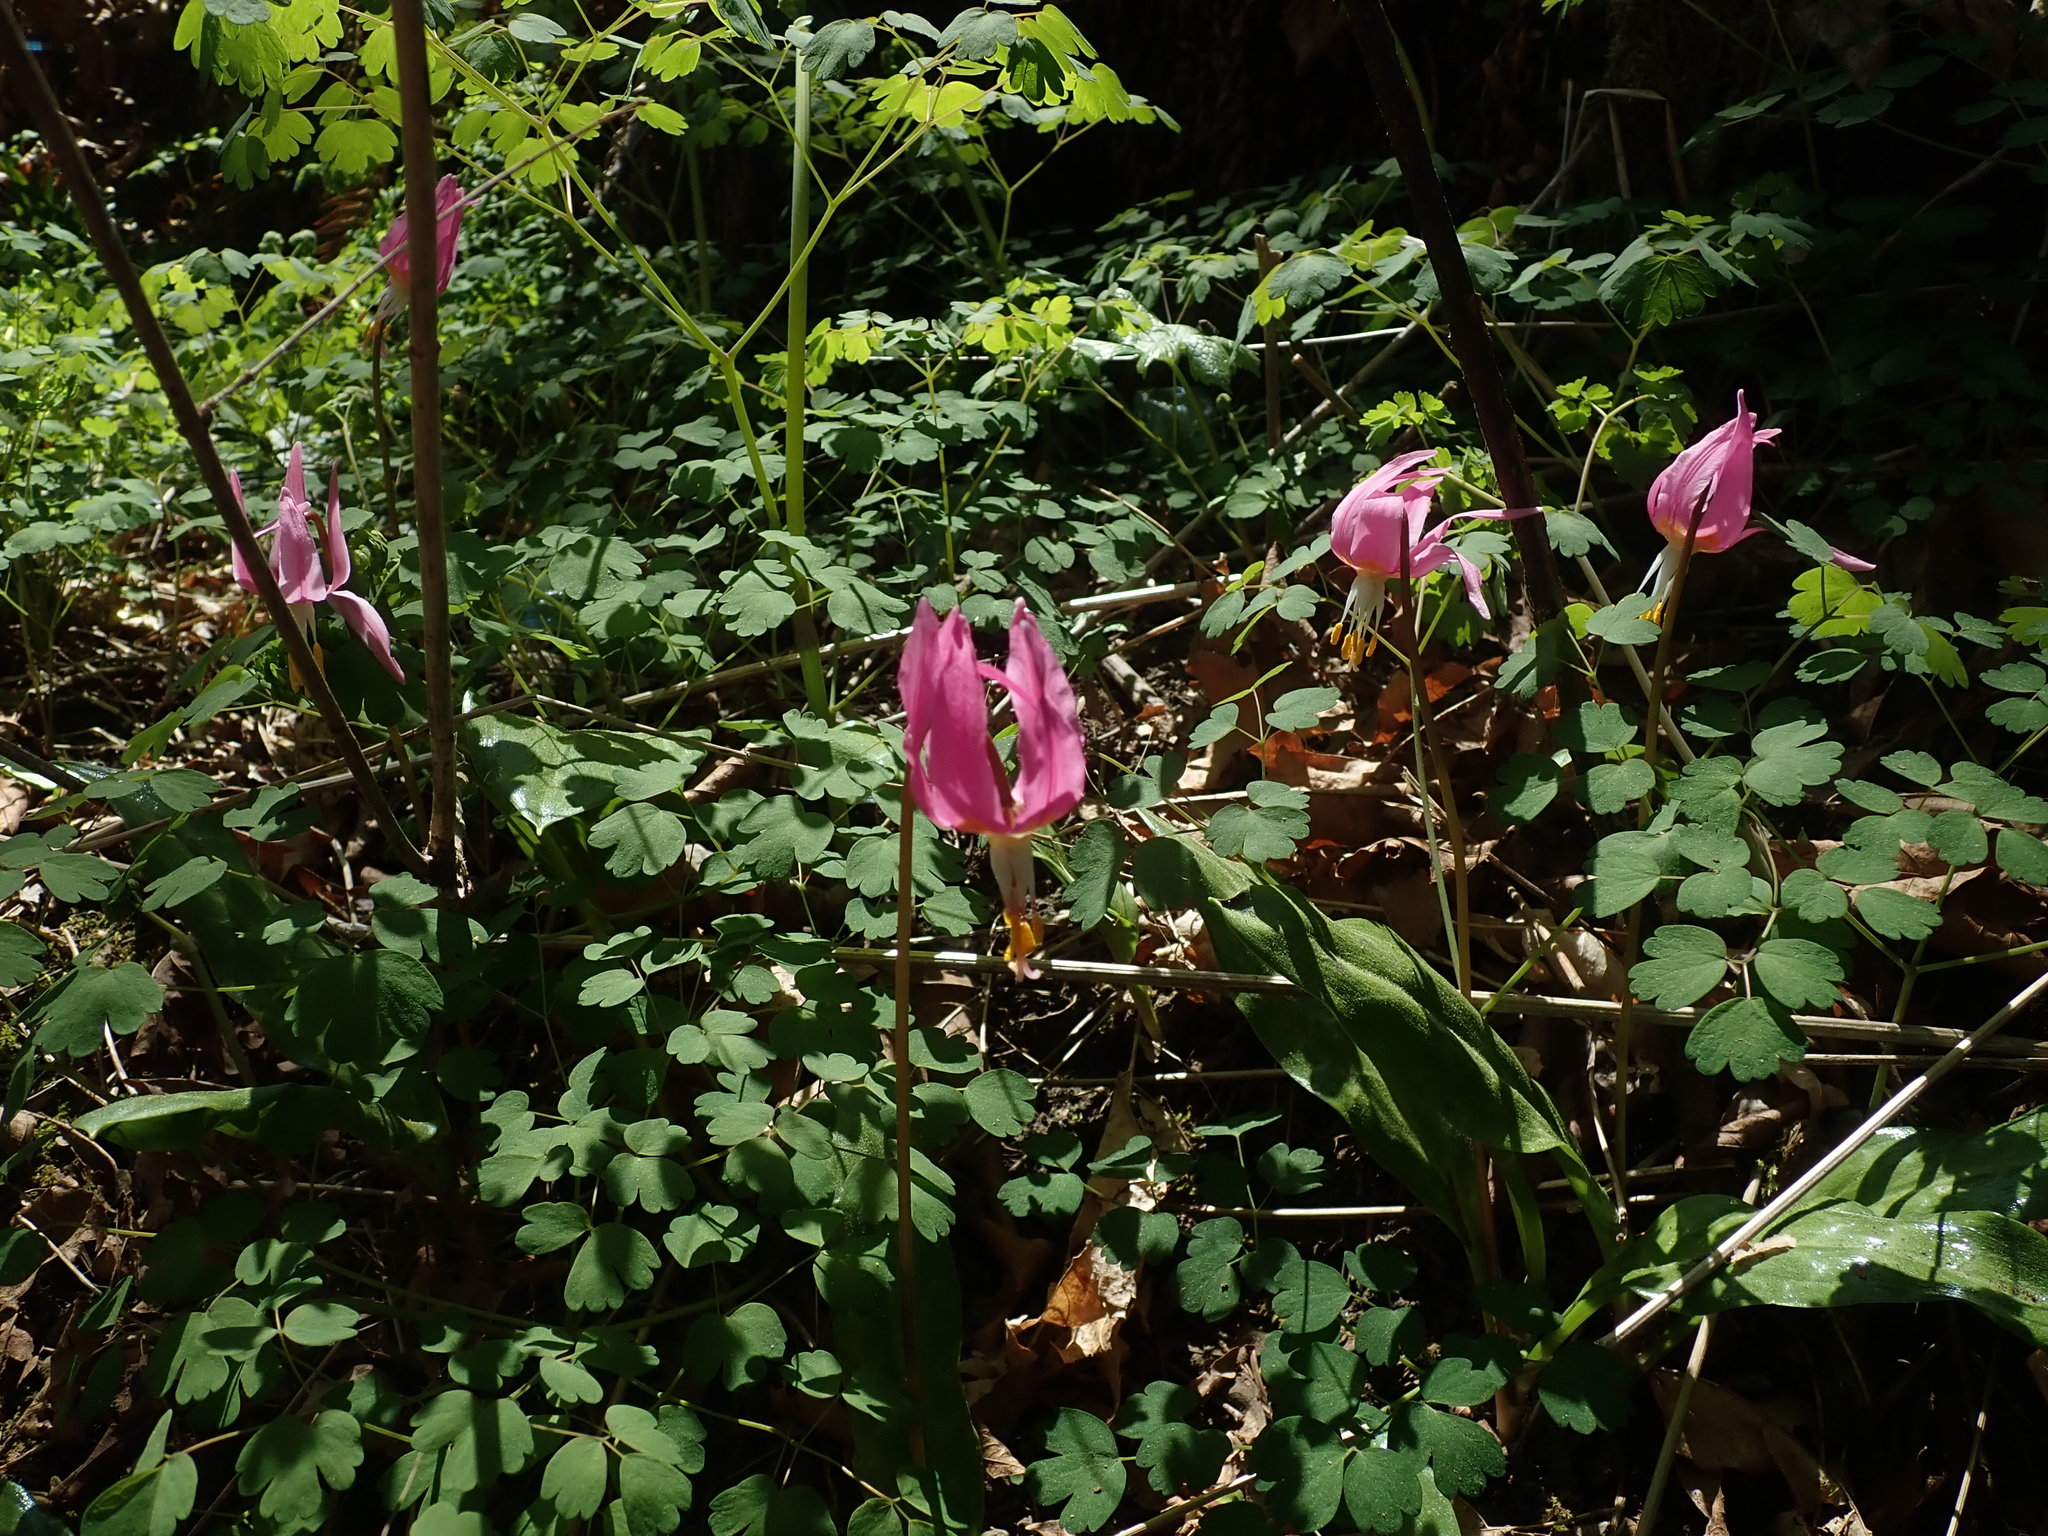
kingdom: Plantae
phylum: Tracheophyta
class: Liliopsida
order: Liliales
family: Liliaceae
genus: Erythronium
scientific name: Erythronium revolutum
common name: Pink fawn-lily
